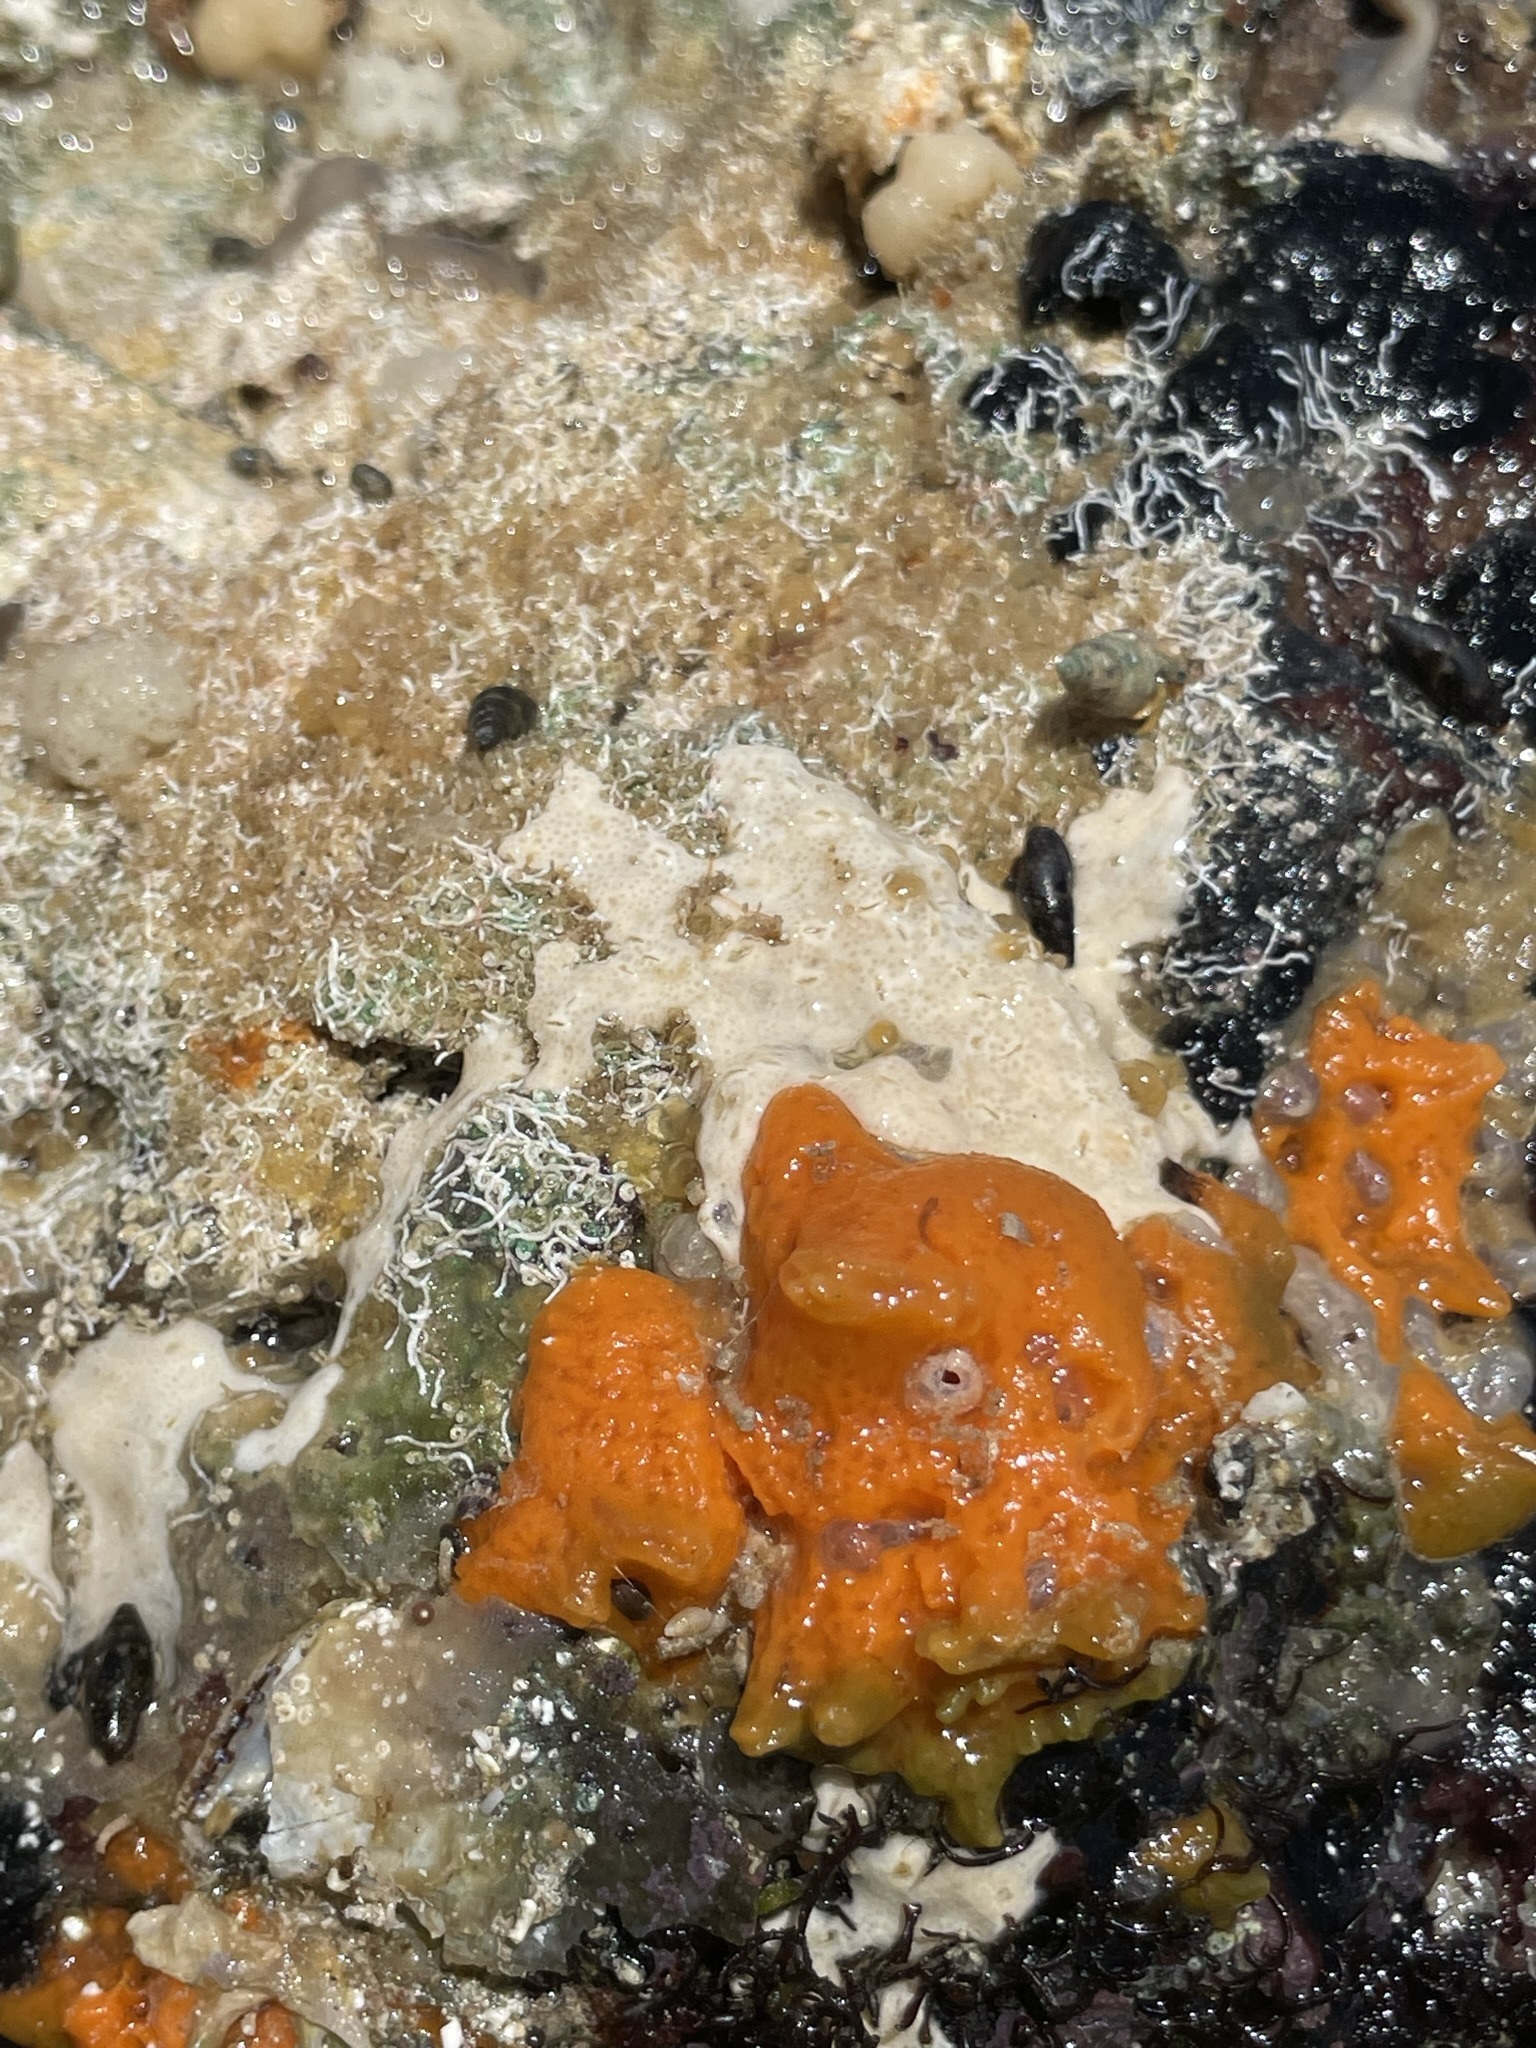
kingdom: Animalia
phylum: Chordata
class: Ascidiacea
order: Stolidobranchia
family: Styelidae
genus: Botrylloides
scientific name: Botrylloides violaceus
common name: Colonial sea squirt
